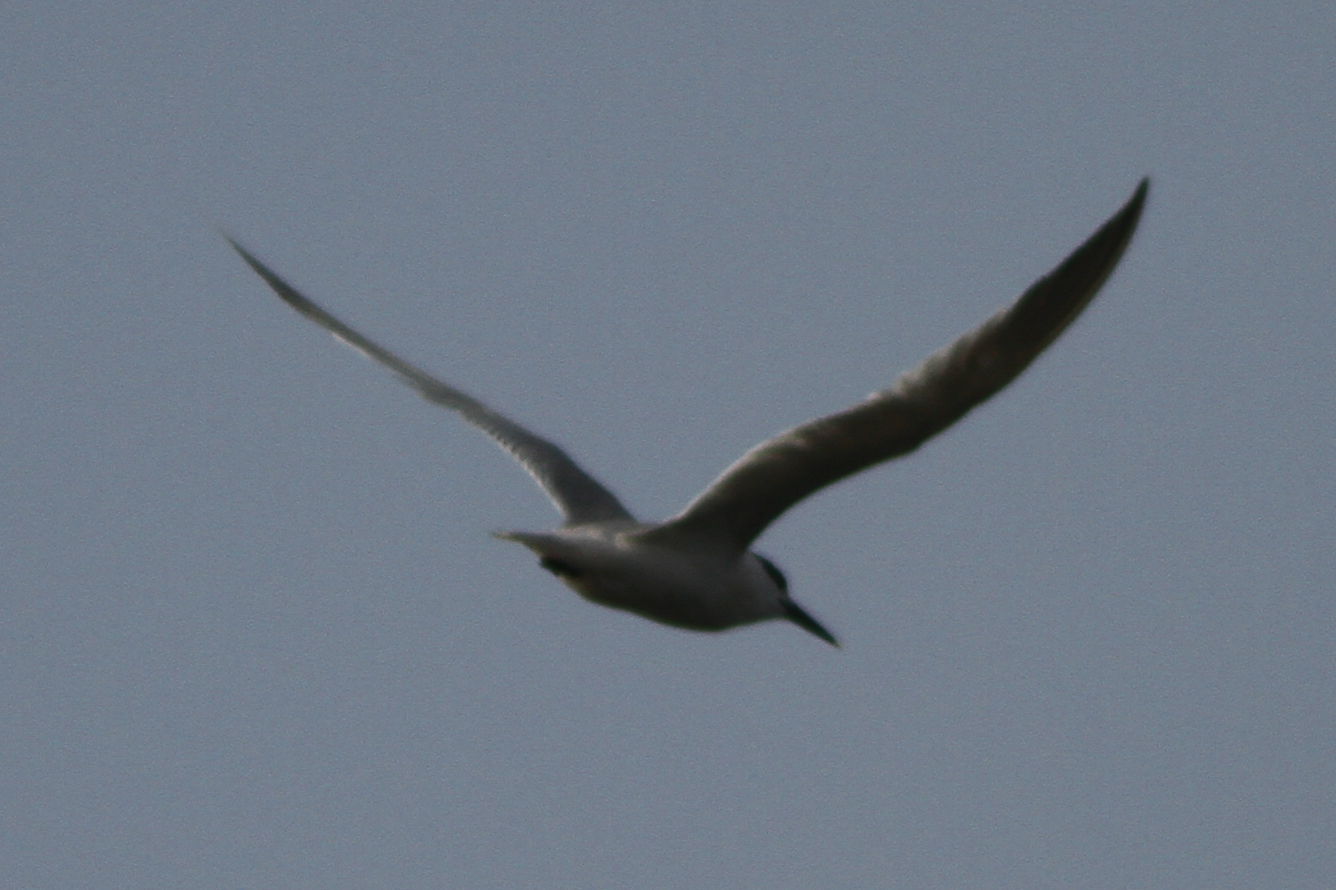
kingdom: Animalia
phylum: Chordata
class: Aves
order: Charadriiformes
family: Laridae
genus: Thalasseus
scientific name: Thalasseus sandvicensis
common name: Sandwich tern
